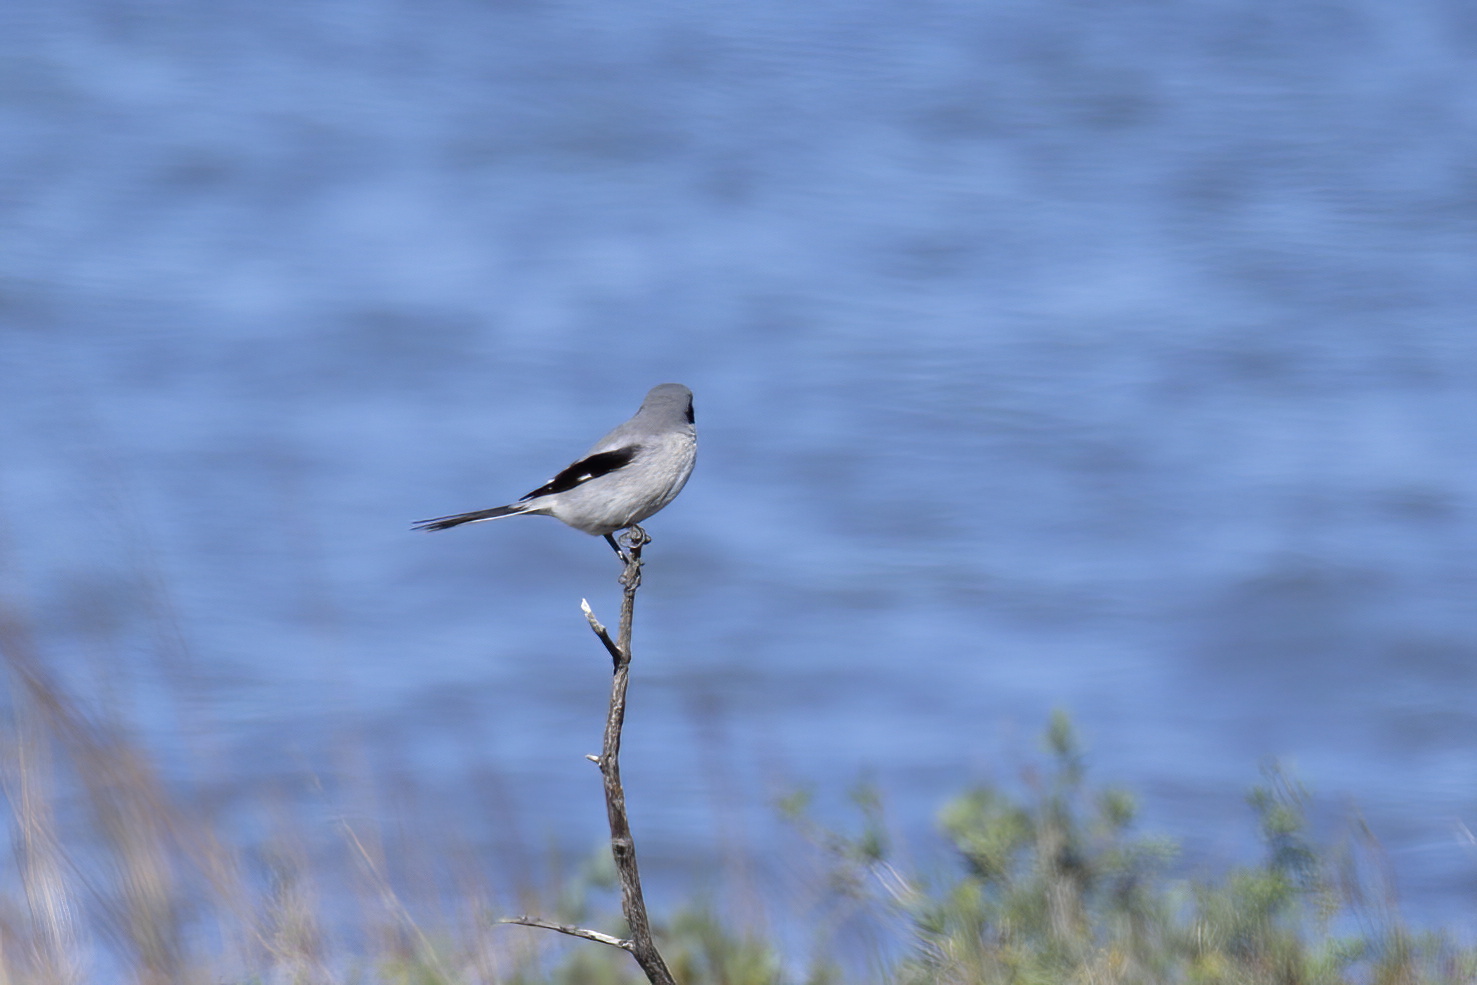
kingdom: Animalia
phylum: Chordata
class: Aves
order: Passeriformes
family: Laniidae
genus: Lanius
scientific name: Lanius ludovicianus
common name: Loggerhead shrike
